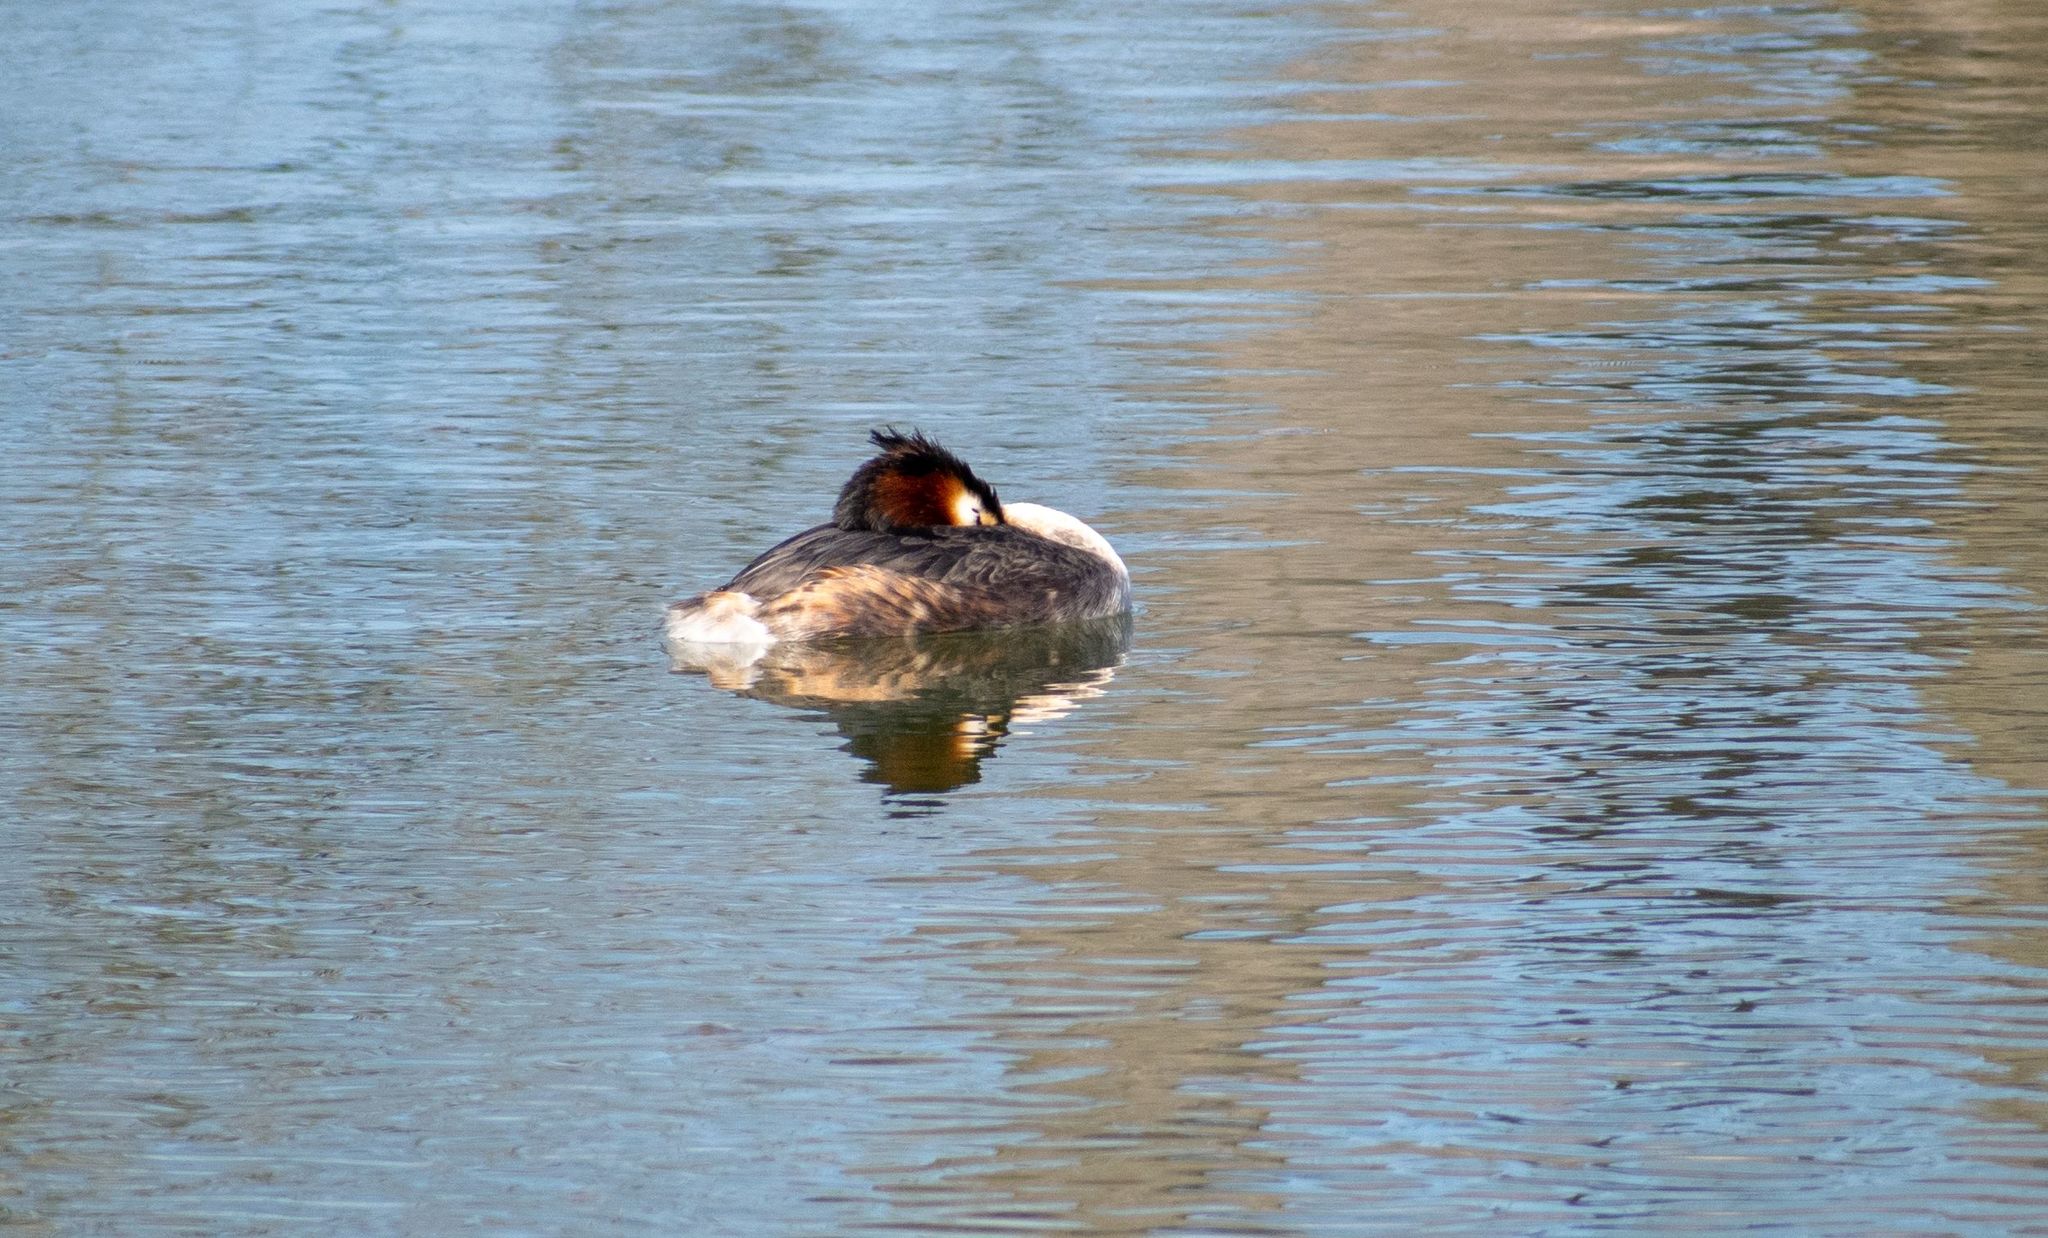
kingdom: Animalia
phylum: Chordata
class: Aves
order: Podicipediformes
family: Podicipedidae
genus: Podiceps
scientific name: Podiceps cristatus
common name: Great crested grebe
